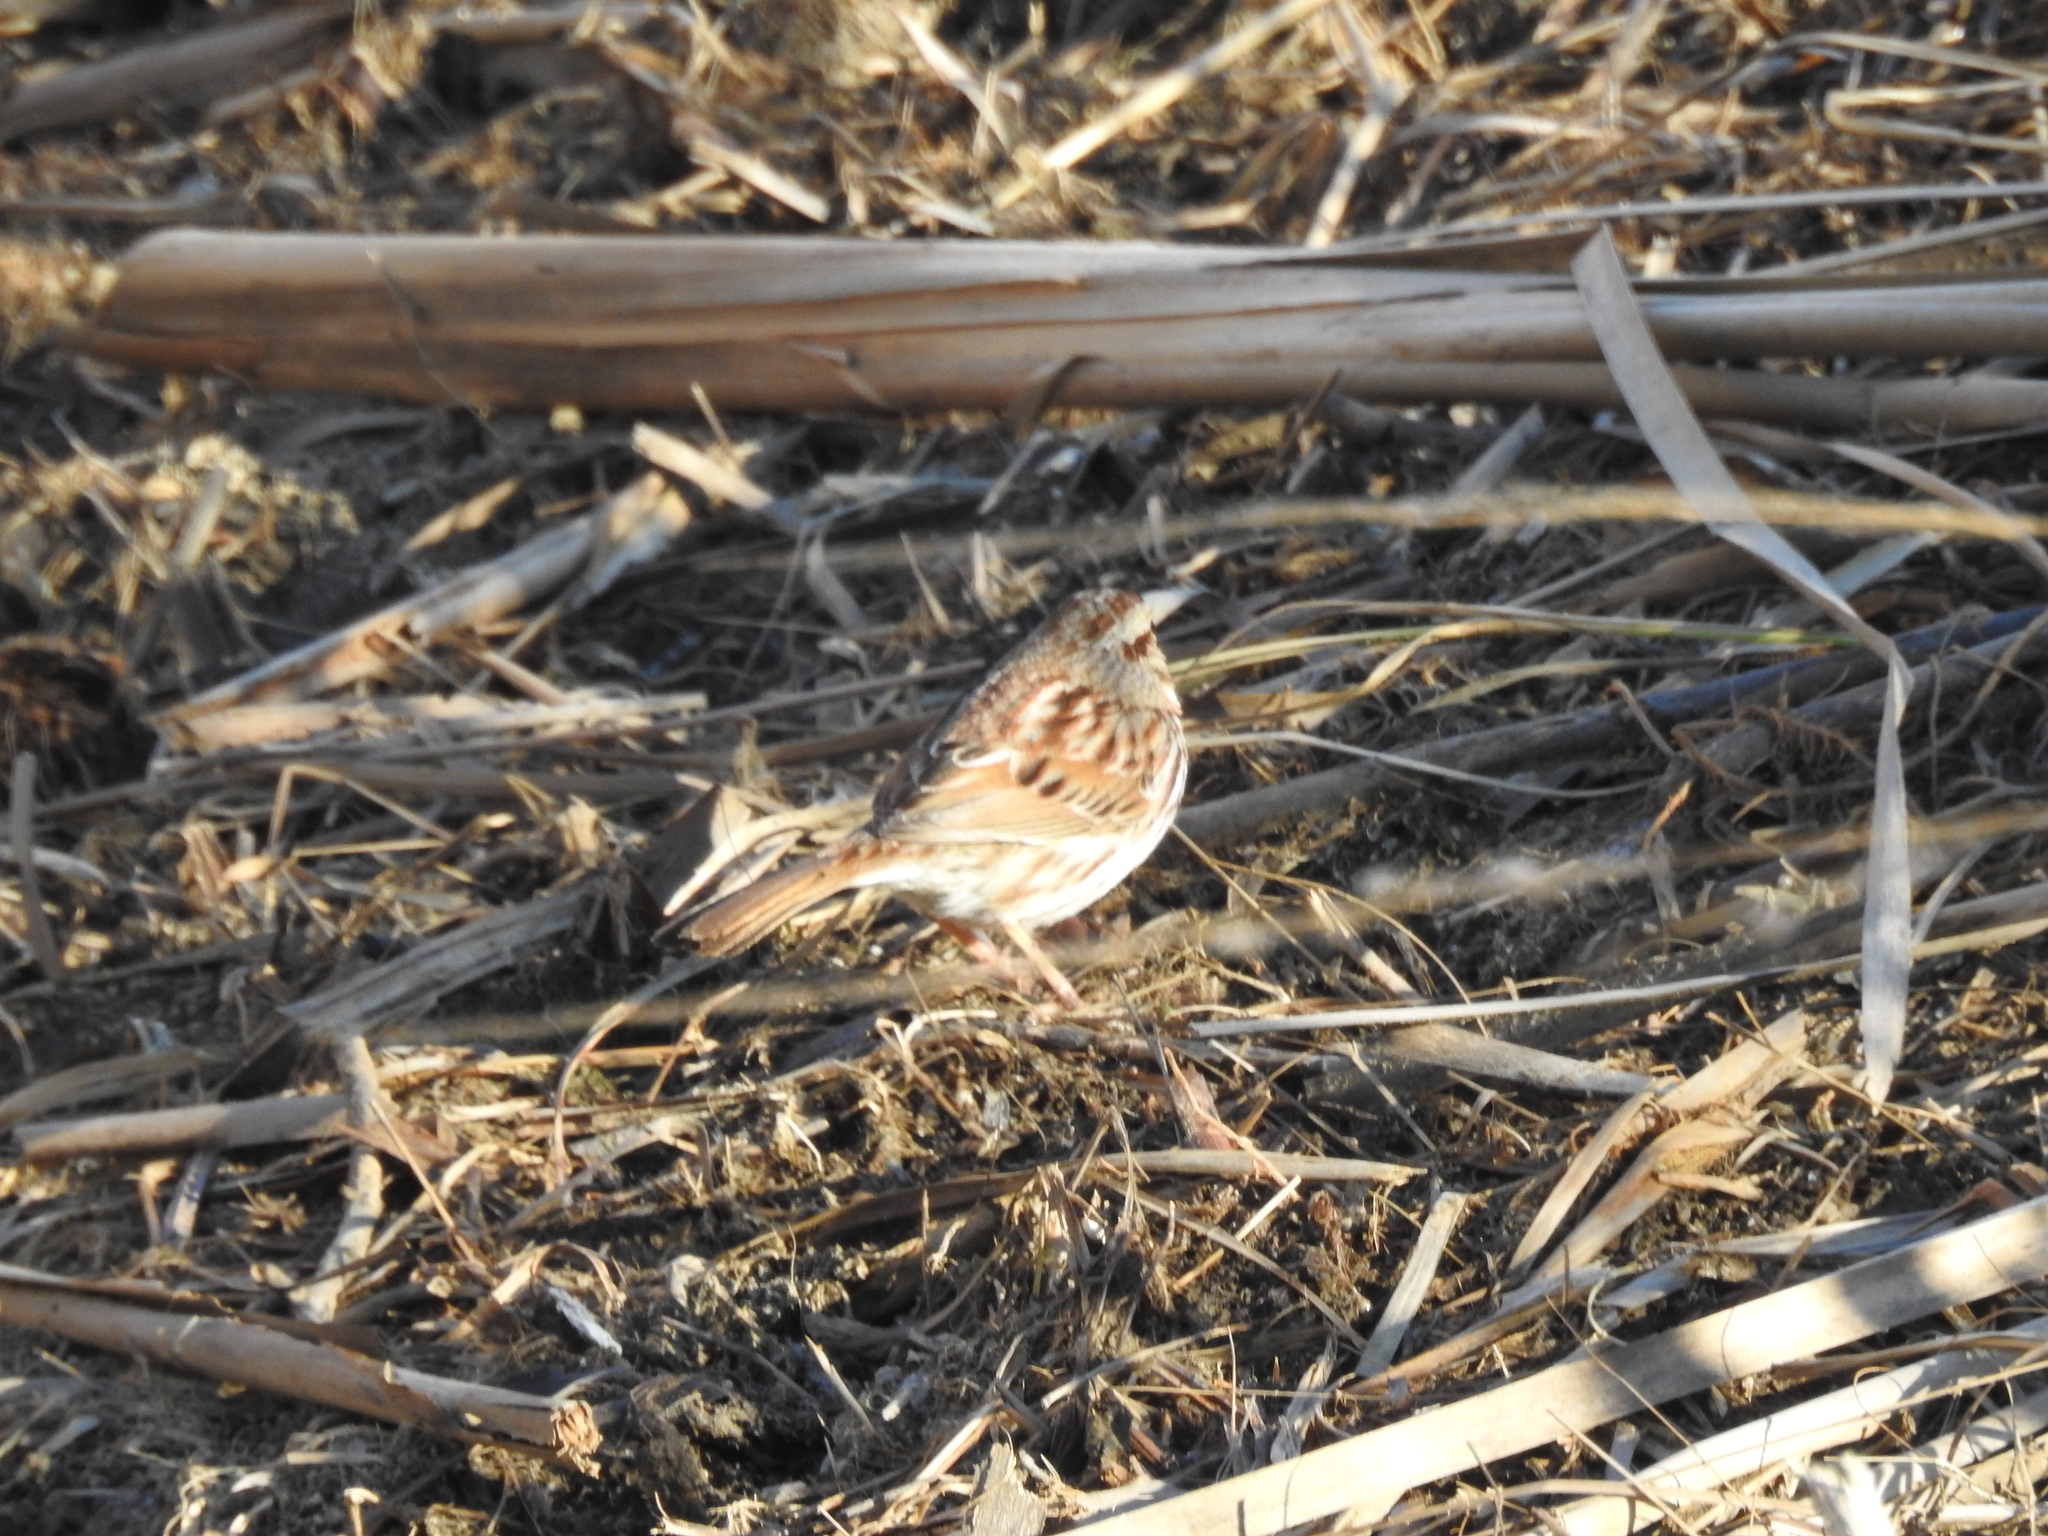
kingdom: Animalia
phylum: Chordata
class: Aves
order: Passeriformes
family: Passerellidae
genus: Melospiza
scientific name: Melospiza melodia
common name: Song sparrow
